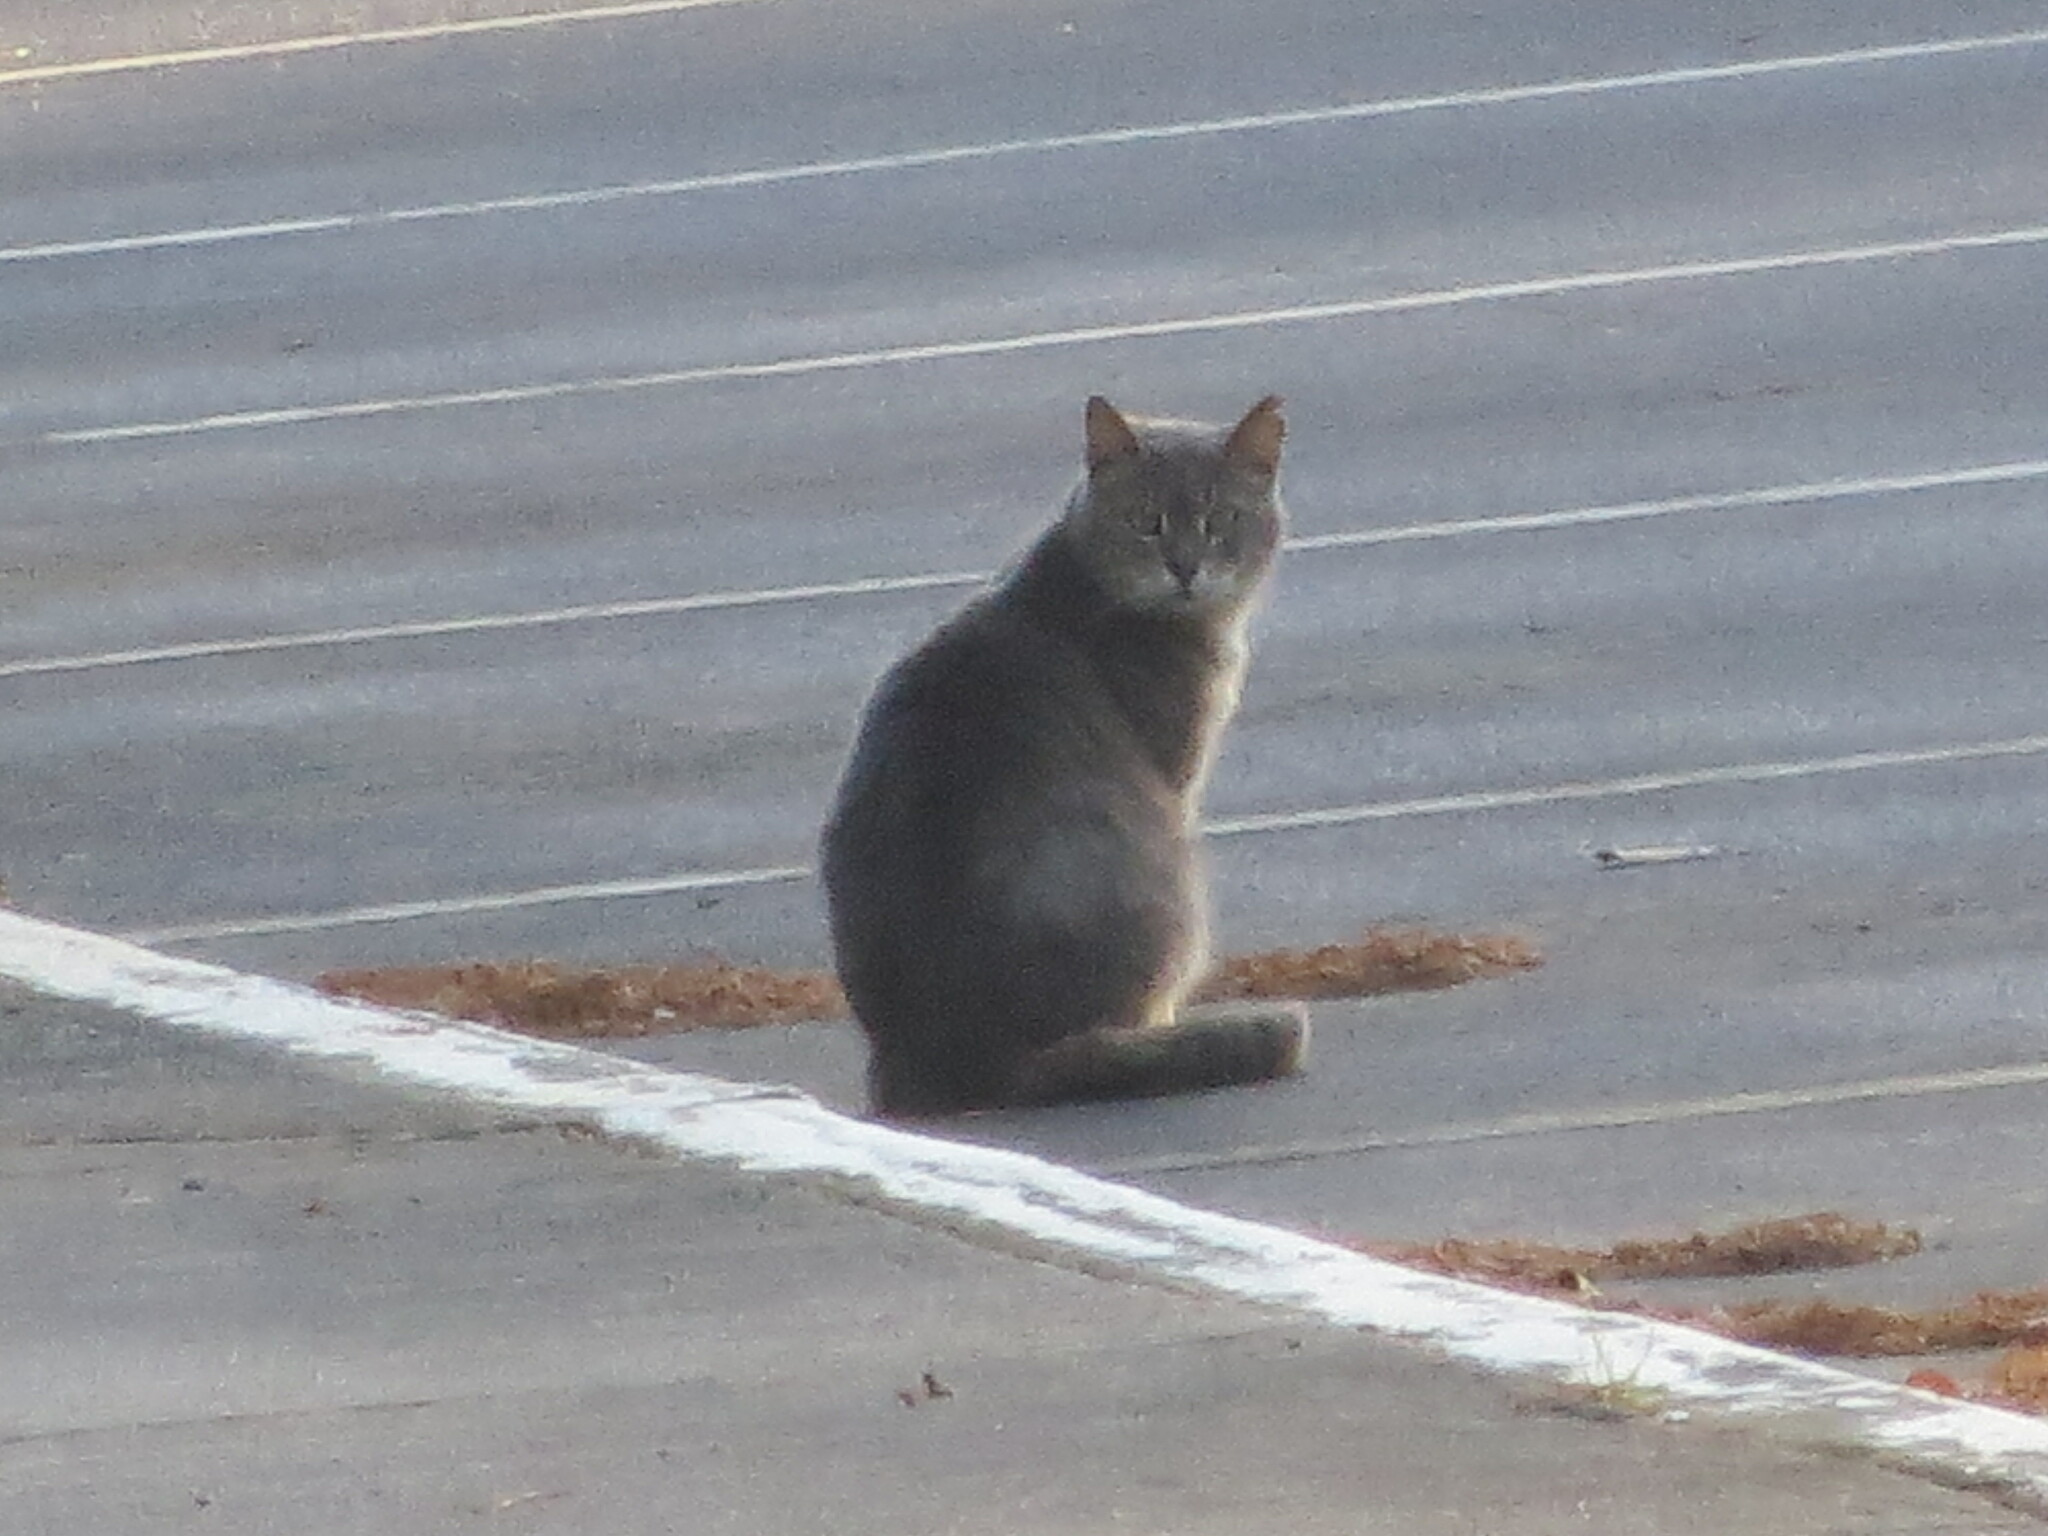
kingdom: Animalia
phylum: Chordata
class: Mammalia
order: Carnivora
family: Felidae
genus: Felis
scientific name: Felis catus
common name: Domestic cat
